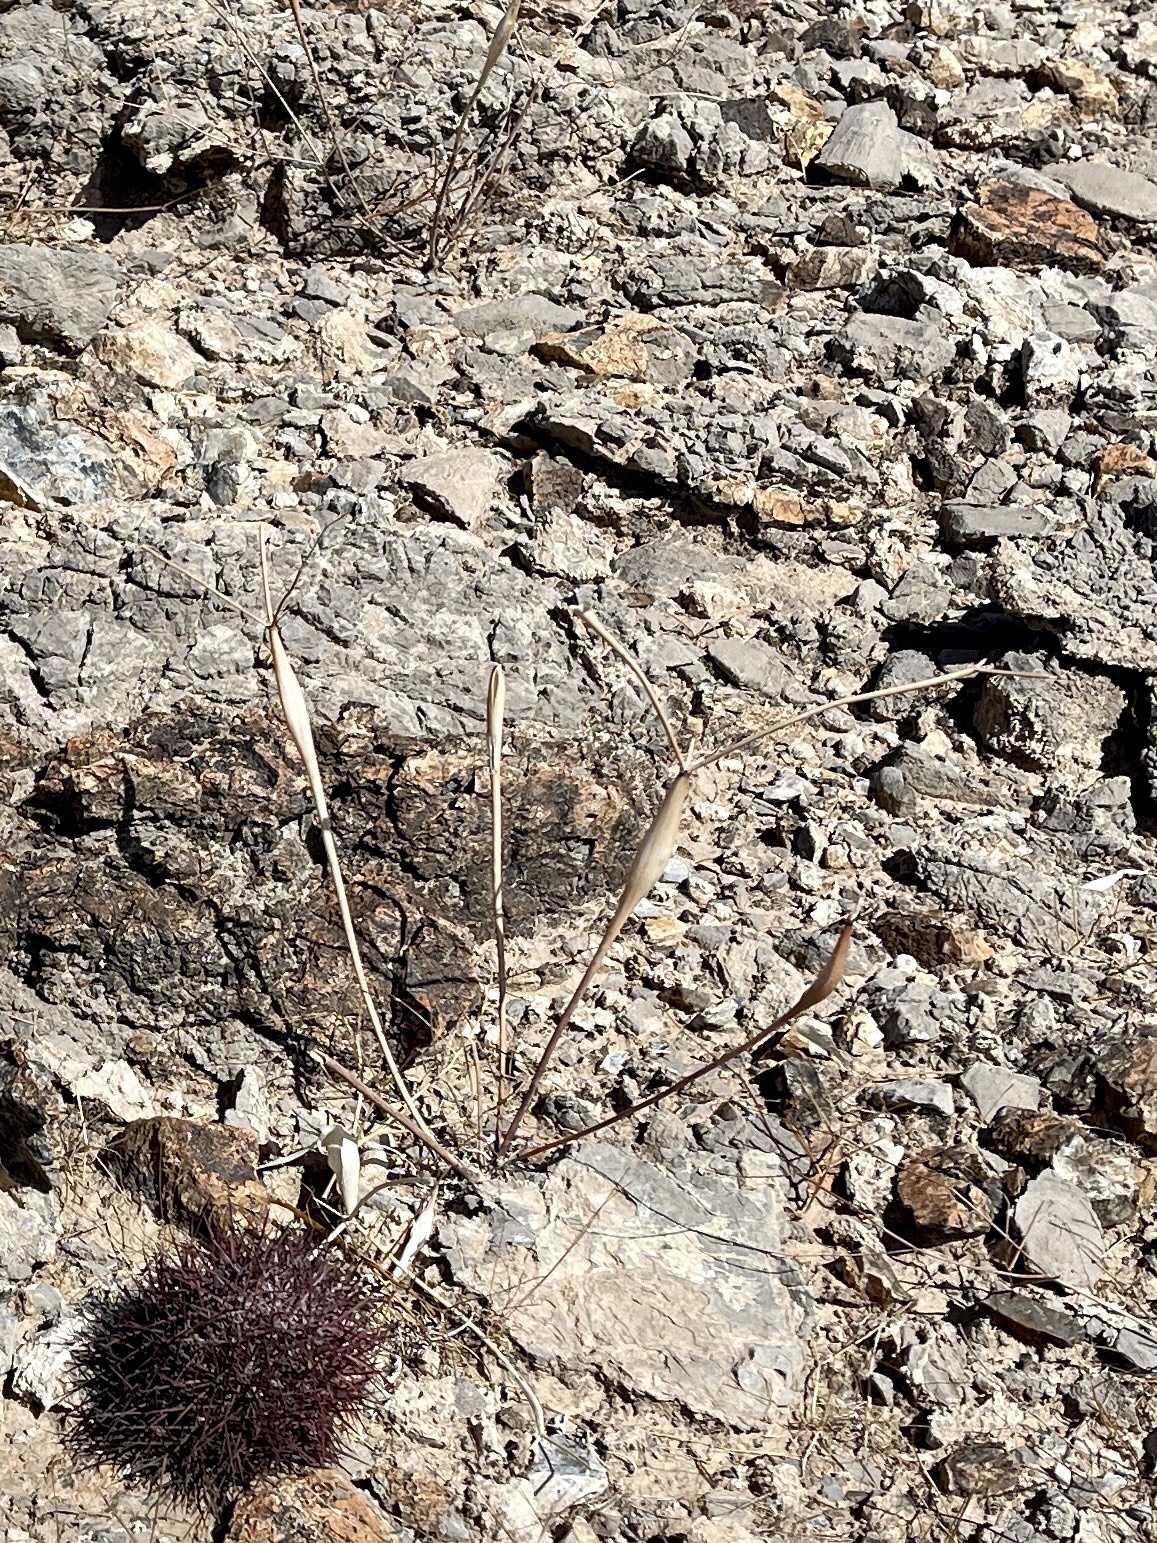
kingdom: Plantae
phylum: Tracheophyta
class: Magnoliopsida
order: Caryophyllales
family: Polygonaceae
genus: Eriogonum
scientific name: Eriogonum inflatum
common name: Desert trumpet
